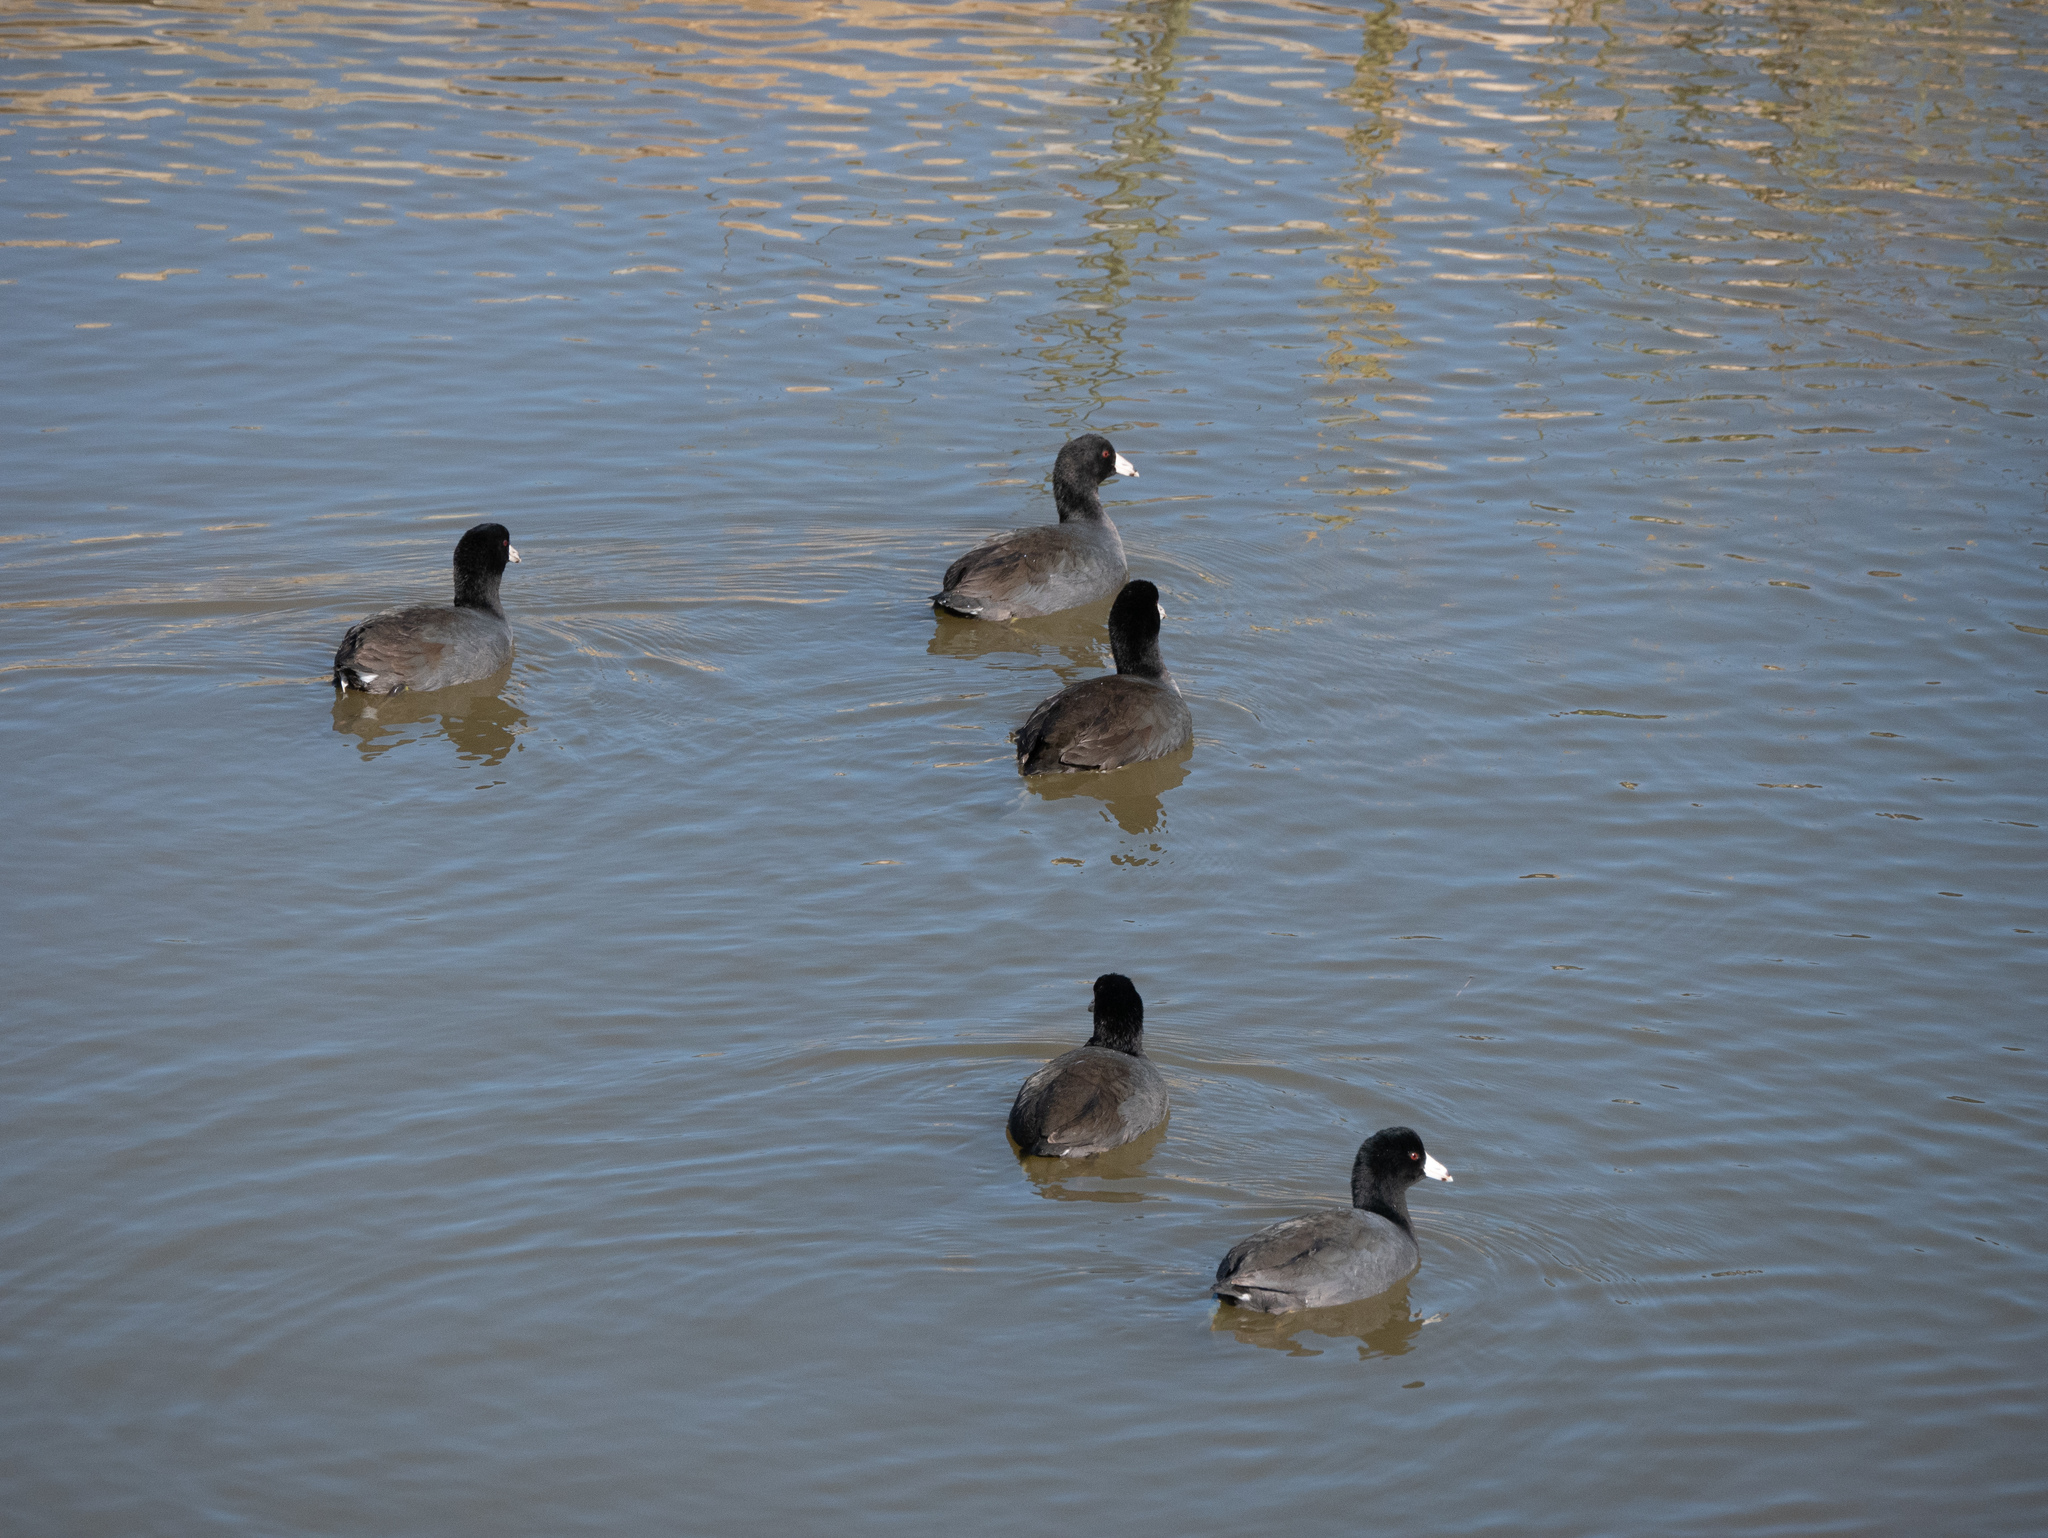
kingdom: Animalia
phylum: Chordata
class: Aves
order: Gruiformes
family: Rallidae
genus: Fulica
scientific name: Fulica americana
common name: American coot
